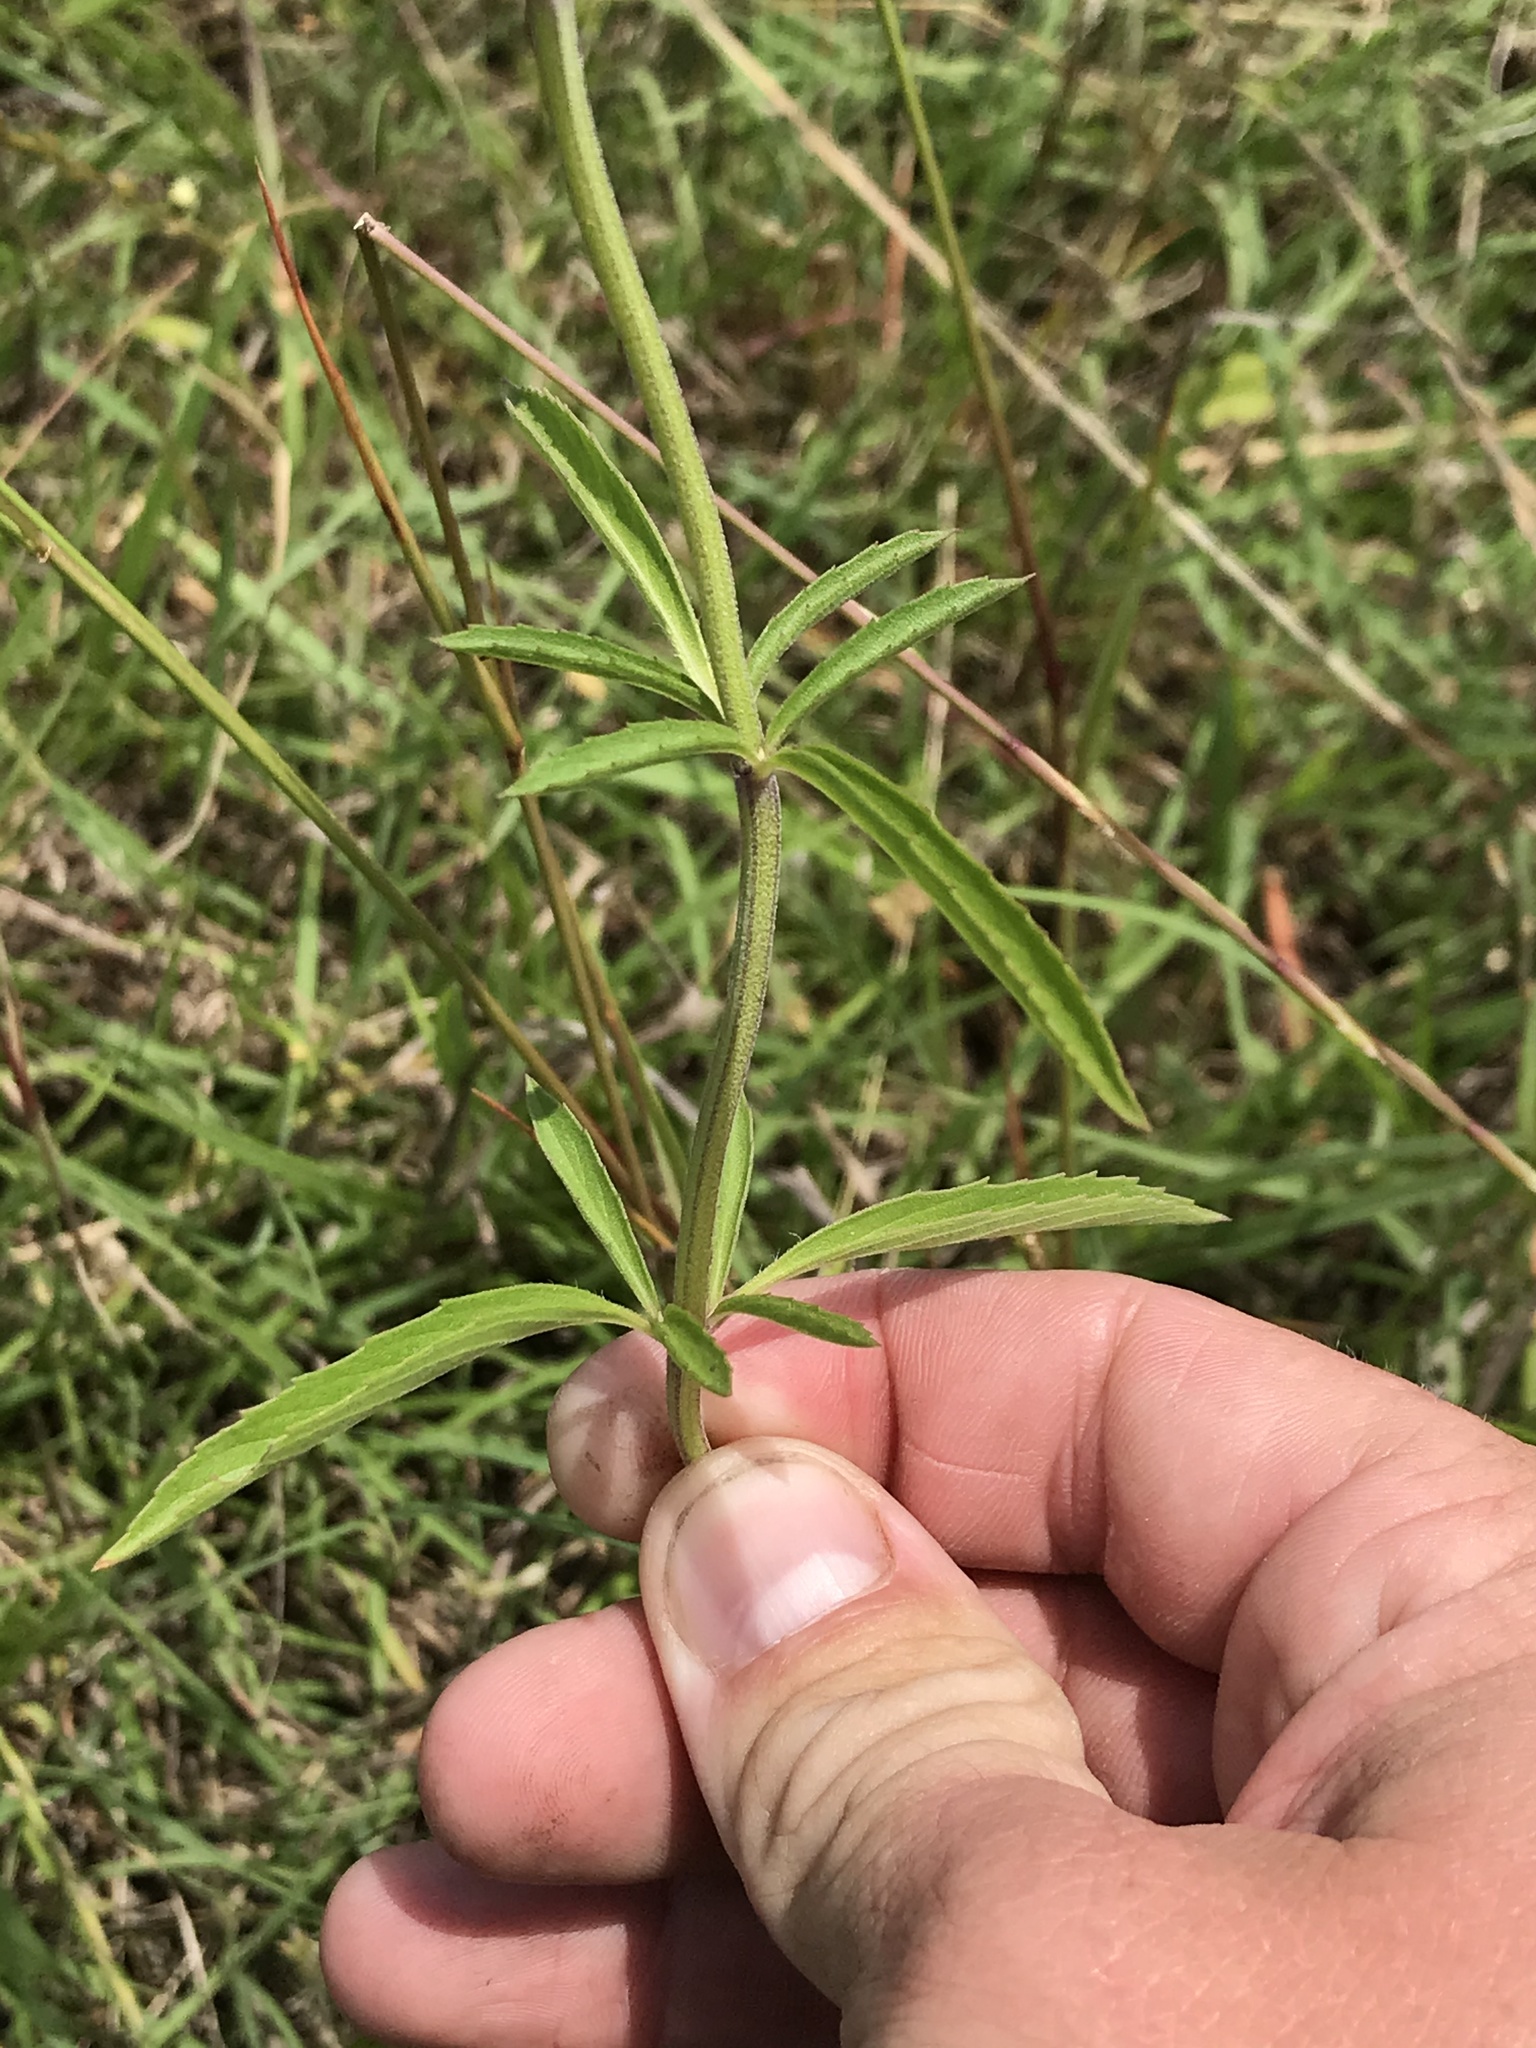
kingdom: Plantae
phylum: Tracheophyta
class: Magnoliopsida
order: Lamiales
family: Lamiaceae
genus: Monarda
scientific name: Monarda citriodora
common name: Lemon beebalm
